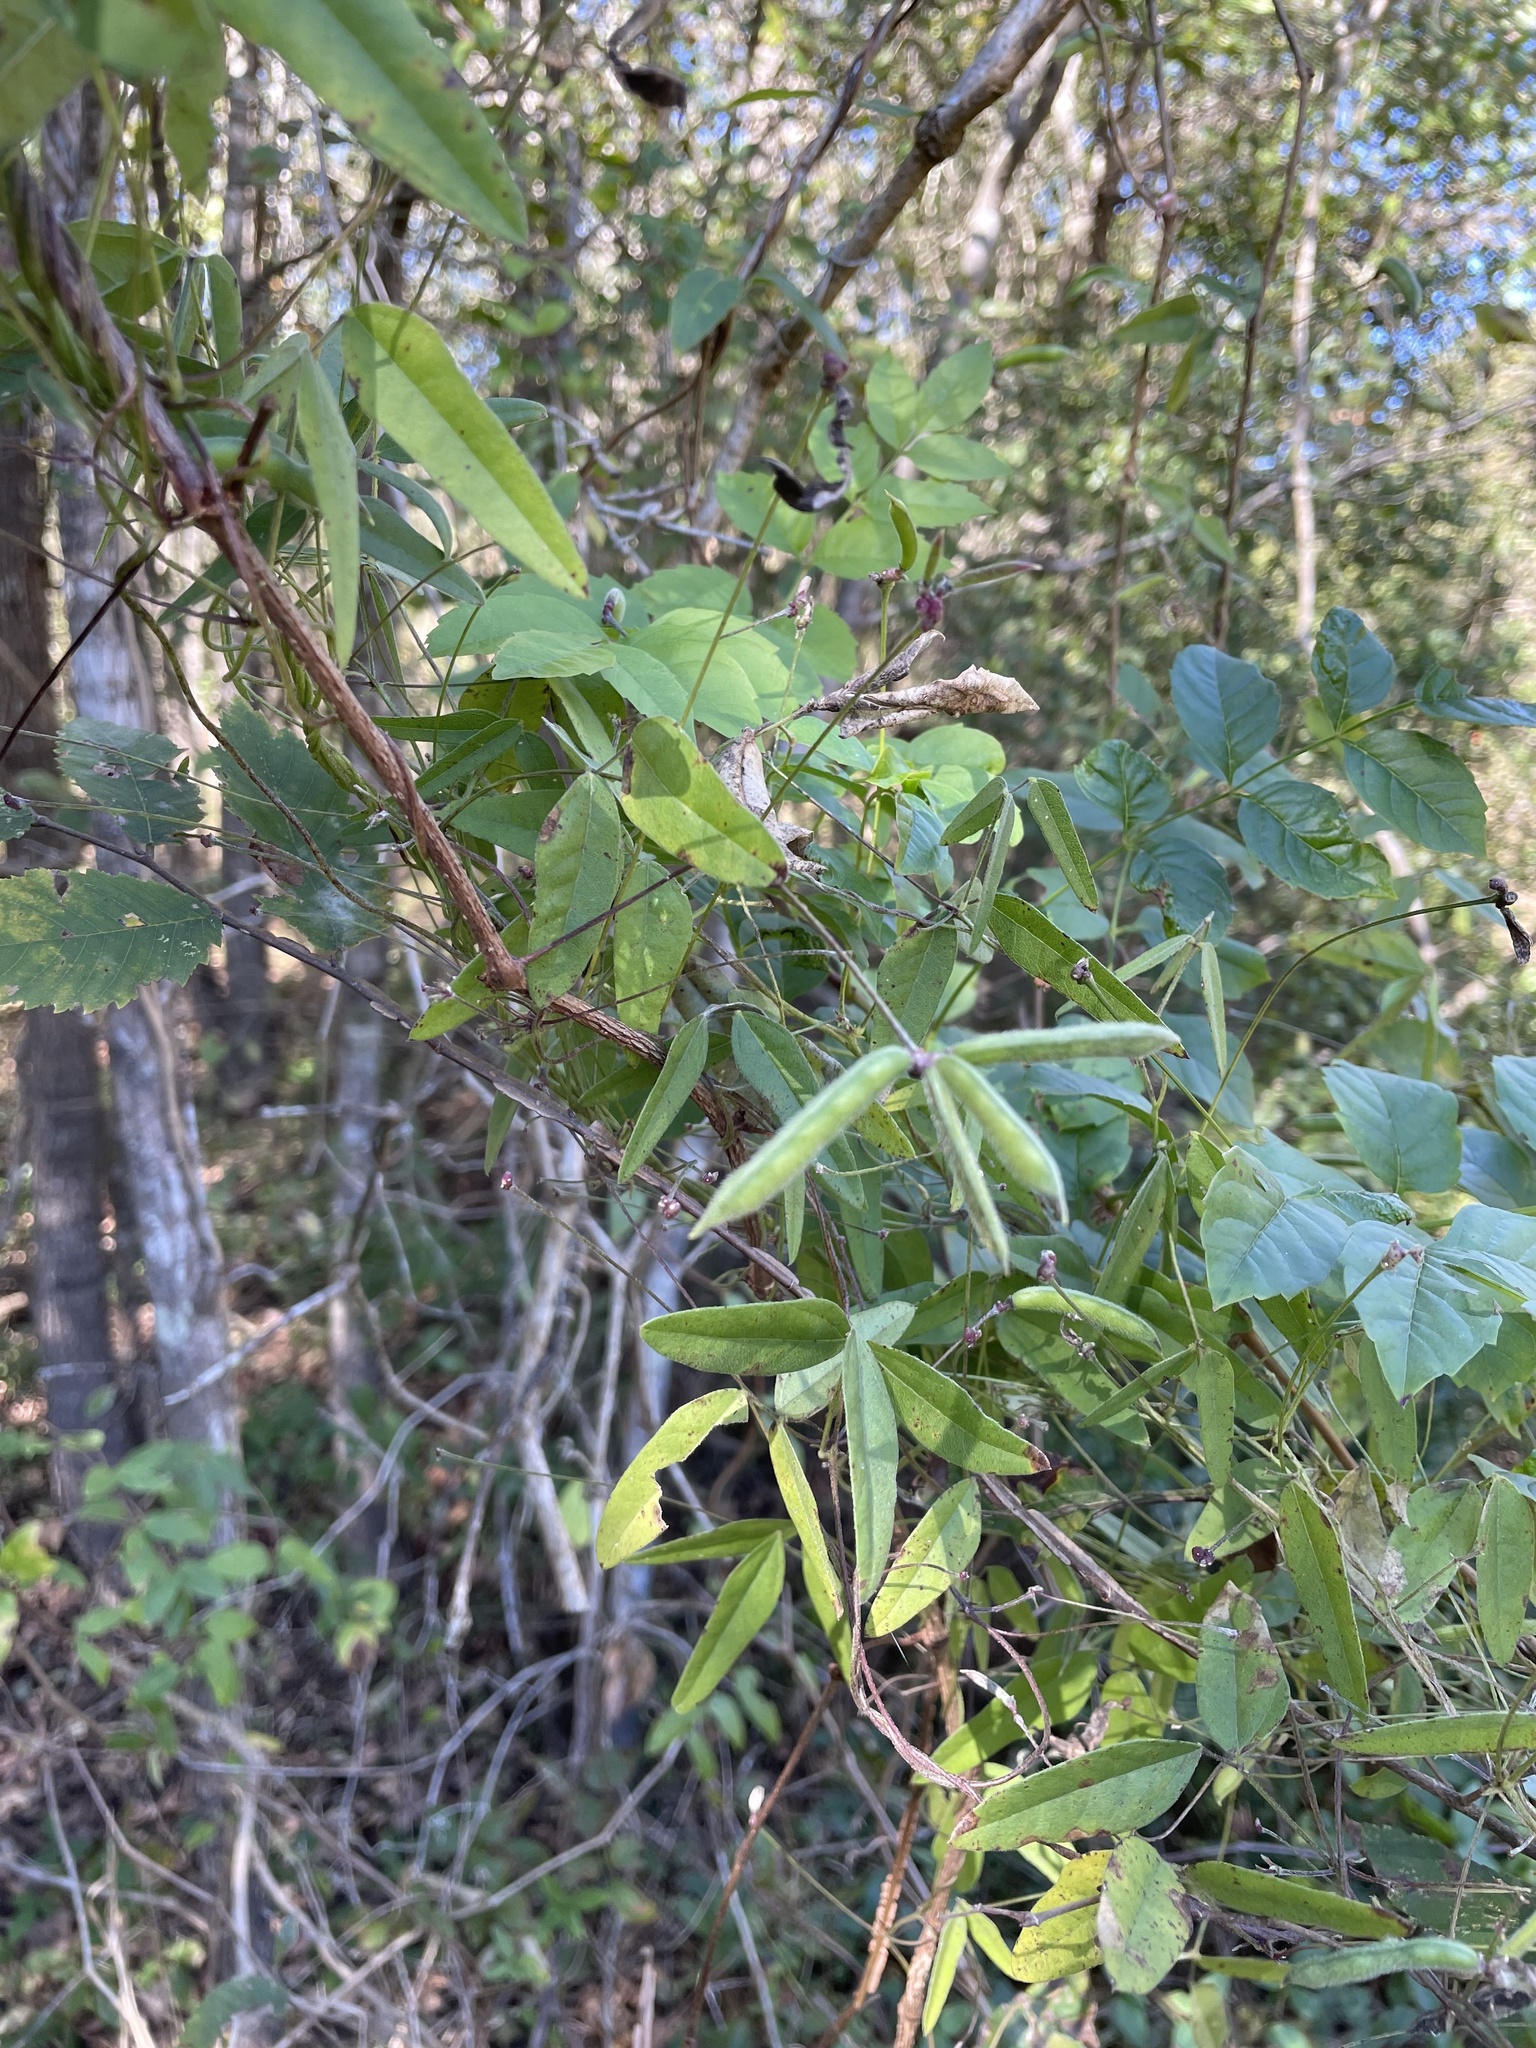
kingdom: Plantae
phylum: Tracheophyta
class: Magnoliopsida
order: Fabales
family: Fabaceae
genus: Strophostyles
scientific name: Strophostyles leiosperma
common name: Smooth-seed wild bean
